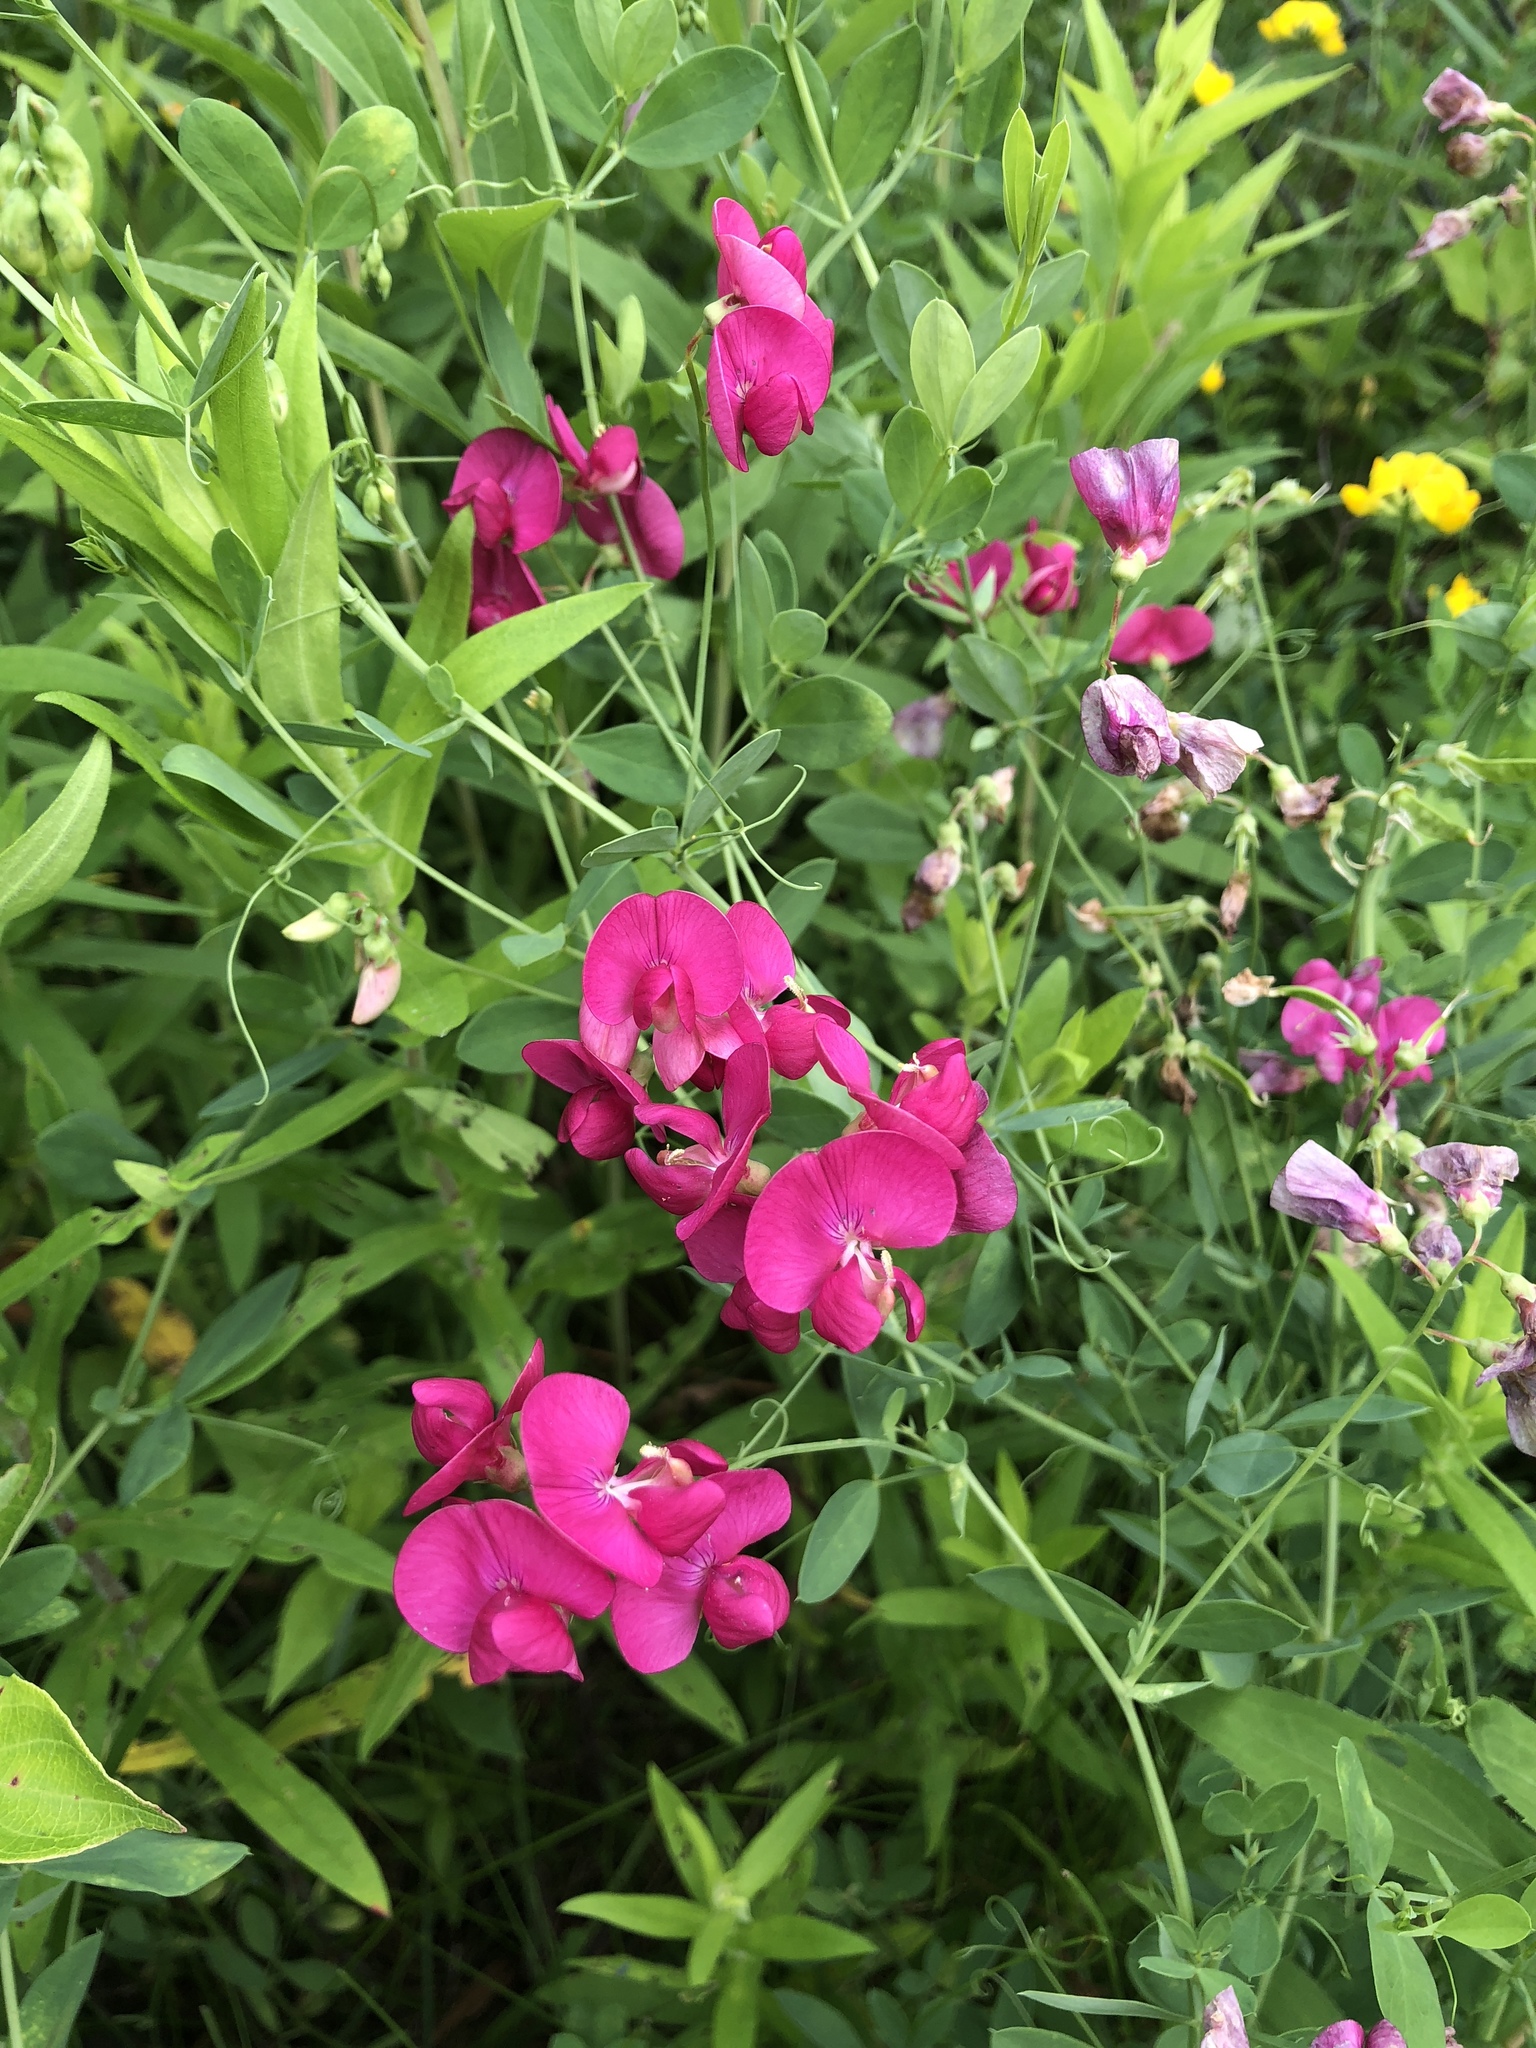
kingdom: Plantae
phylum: Tracheophyta
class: Magnoliopsida
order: Fabales
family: Fabaceae
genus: Lathyrus
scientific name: Lathyrus latifolius
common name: Perennial pea
